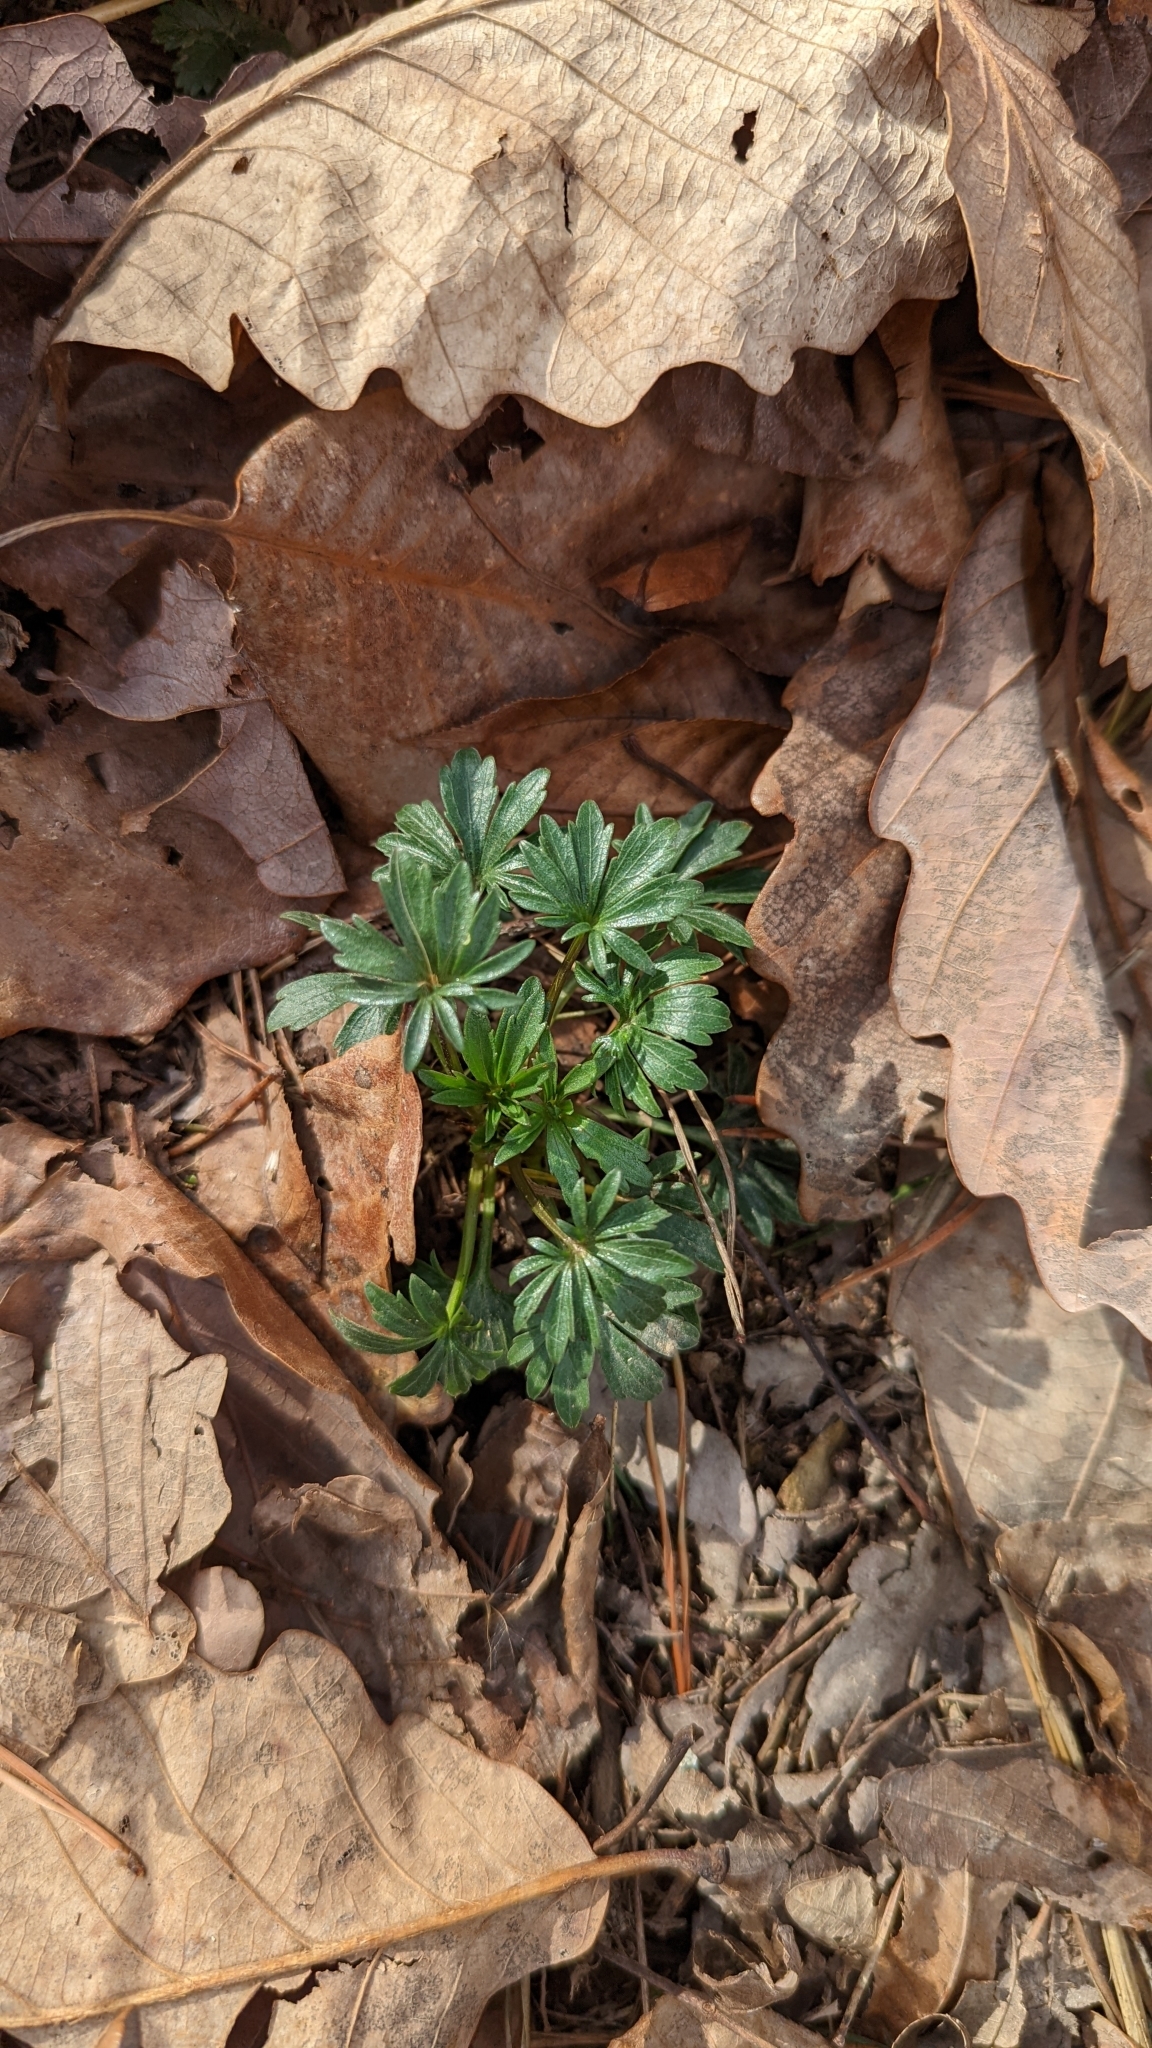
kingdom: Plantae
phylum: Tracheophyta
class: Magnoliopsida
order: Malpighiales
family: Violaceae
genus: Viola
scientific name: Viola pedata
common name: Pansy violet
